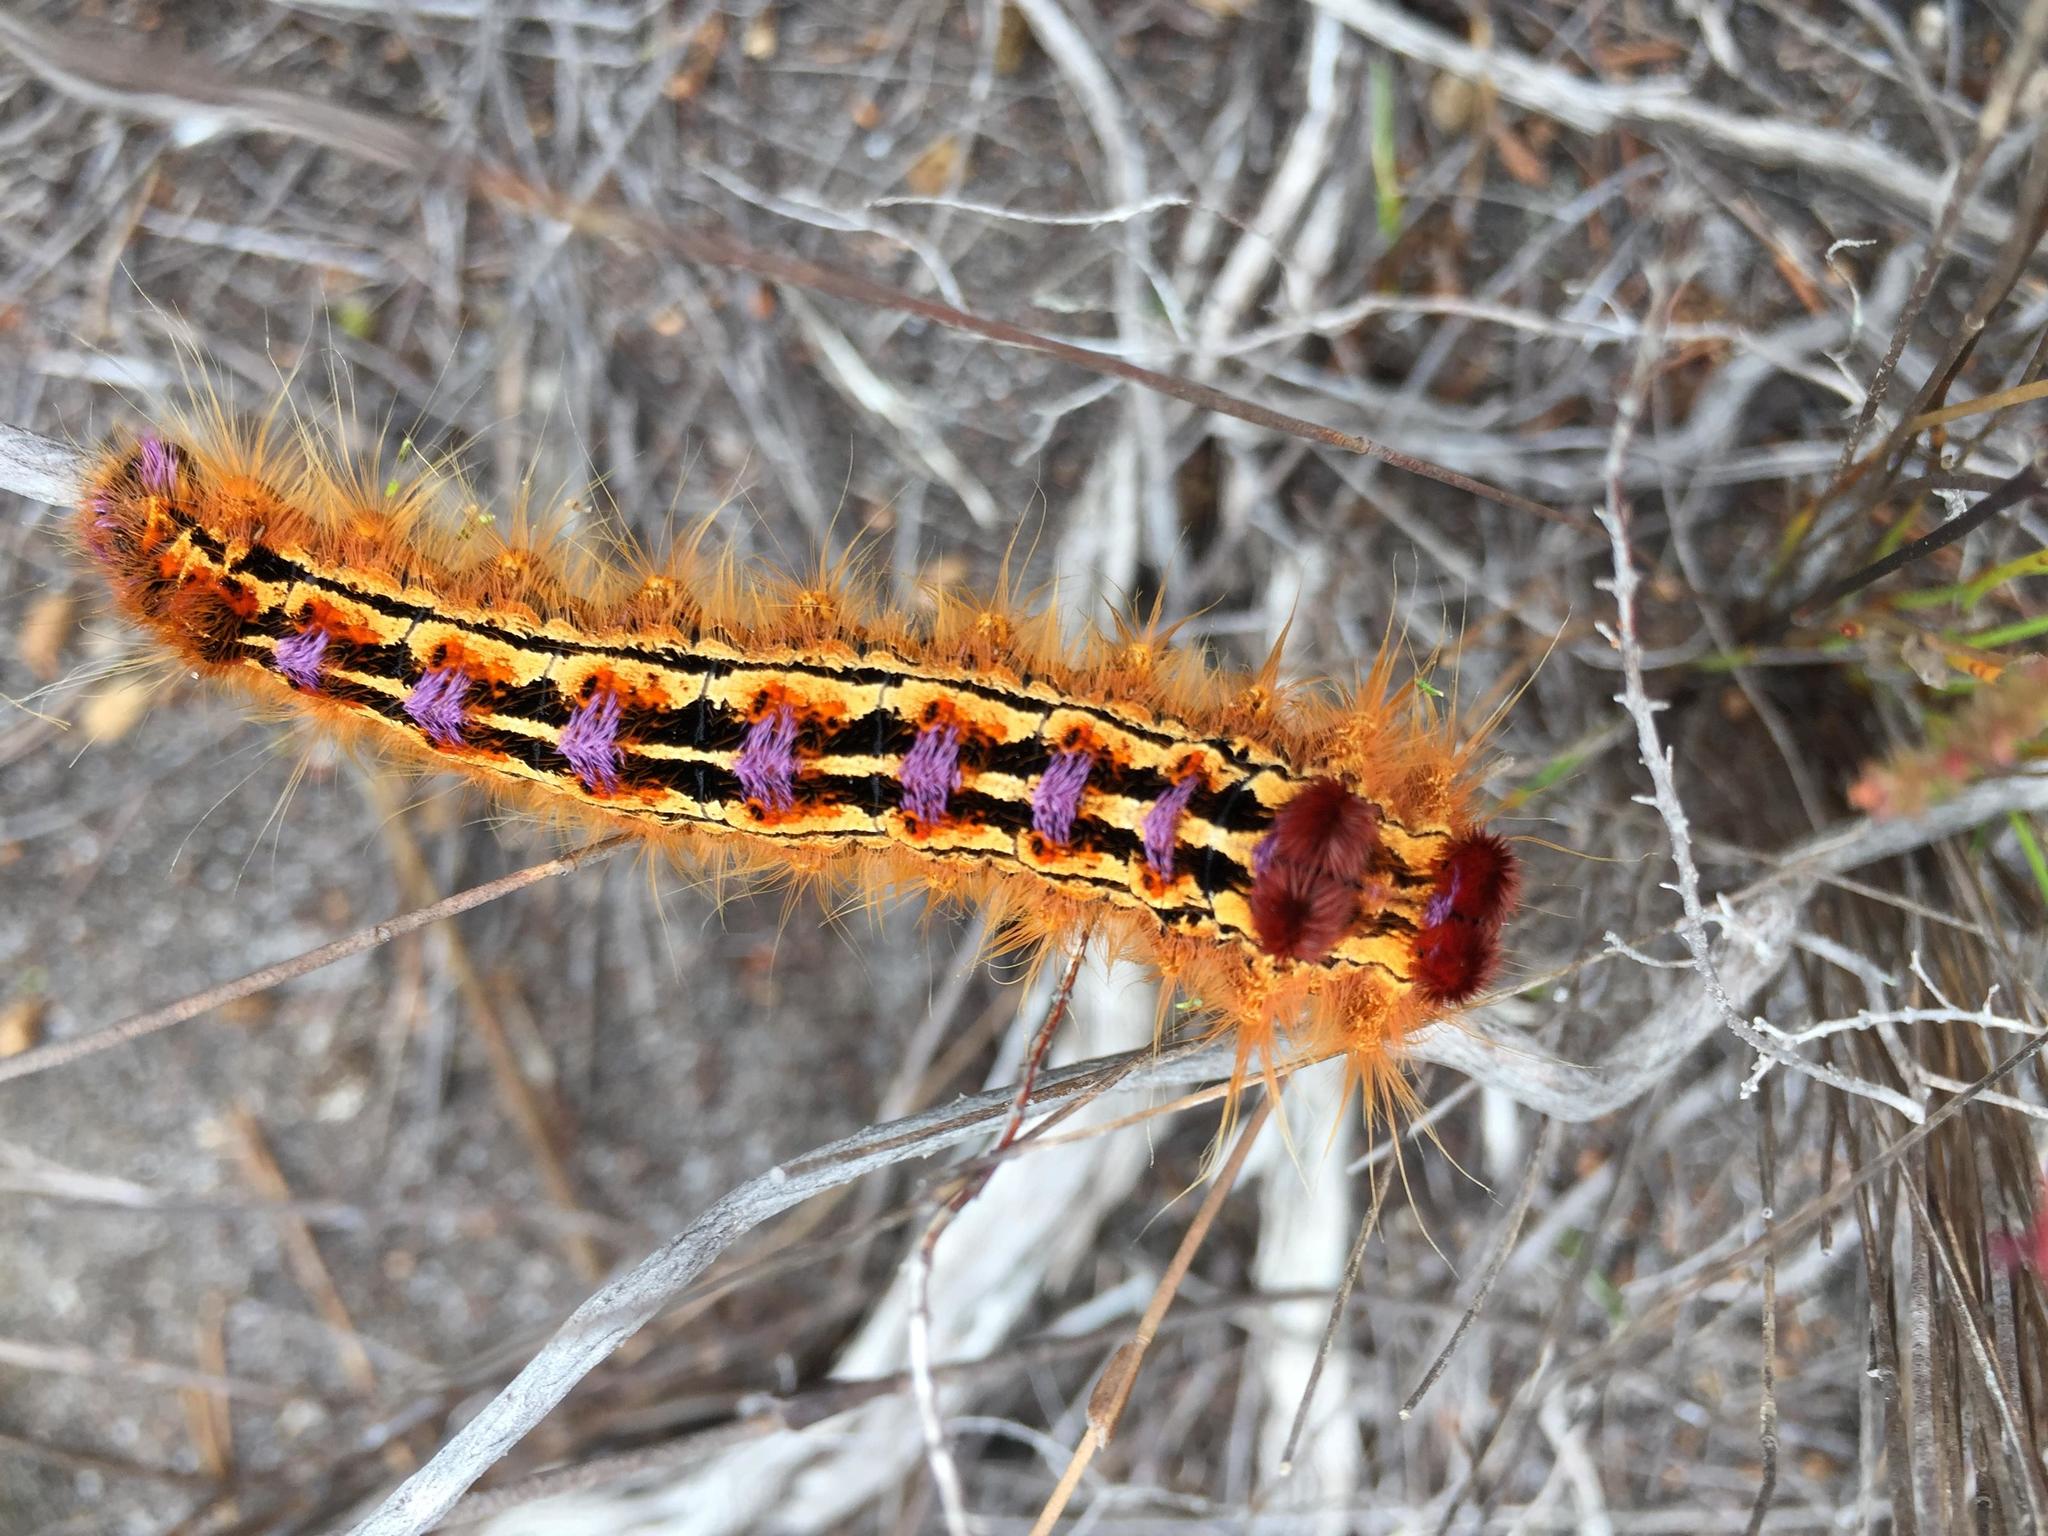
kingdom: Animalia
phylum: Arthropoda
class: Insecta
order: Lepidoptera
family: Lasiocampidae
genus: Eutricha
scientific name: Eutricha bifascia
